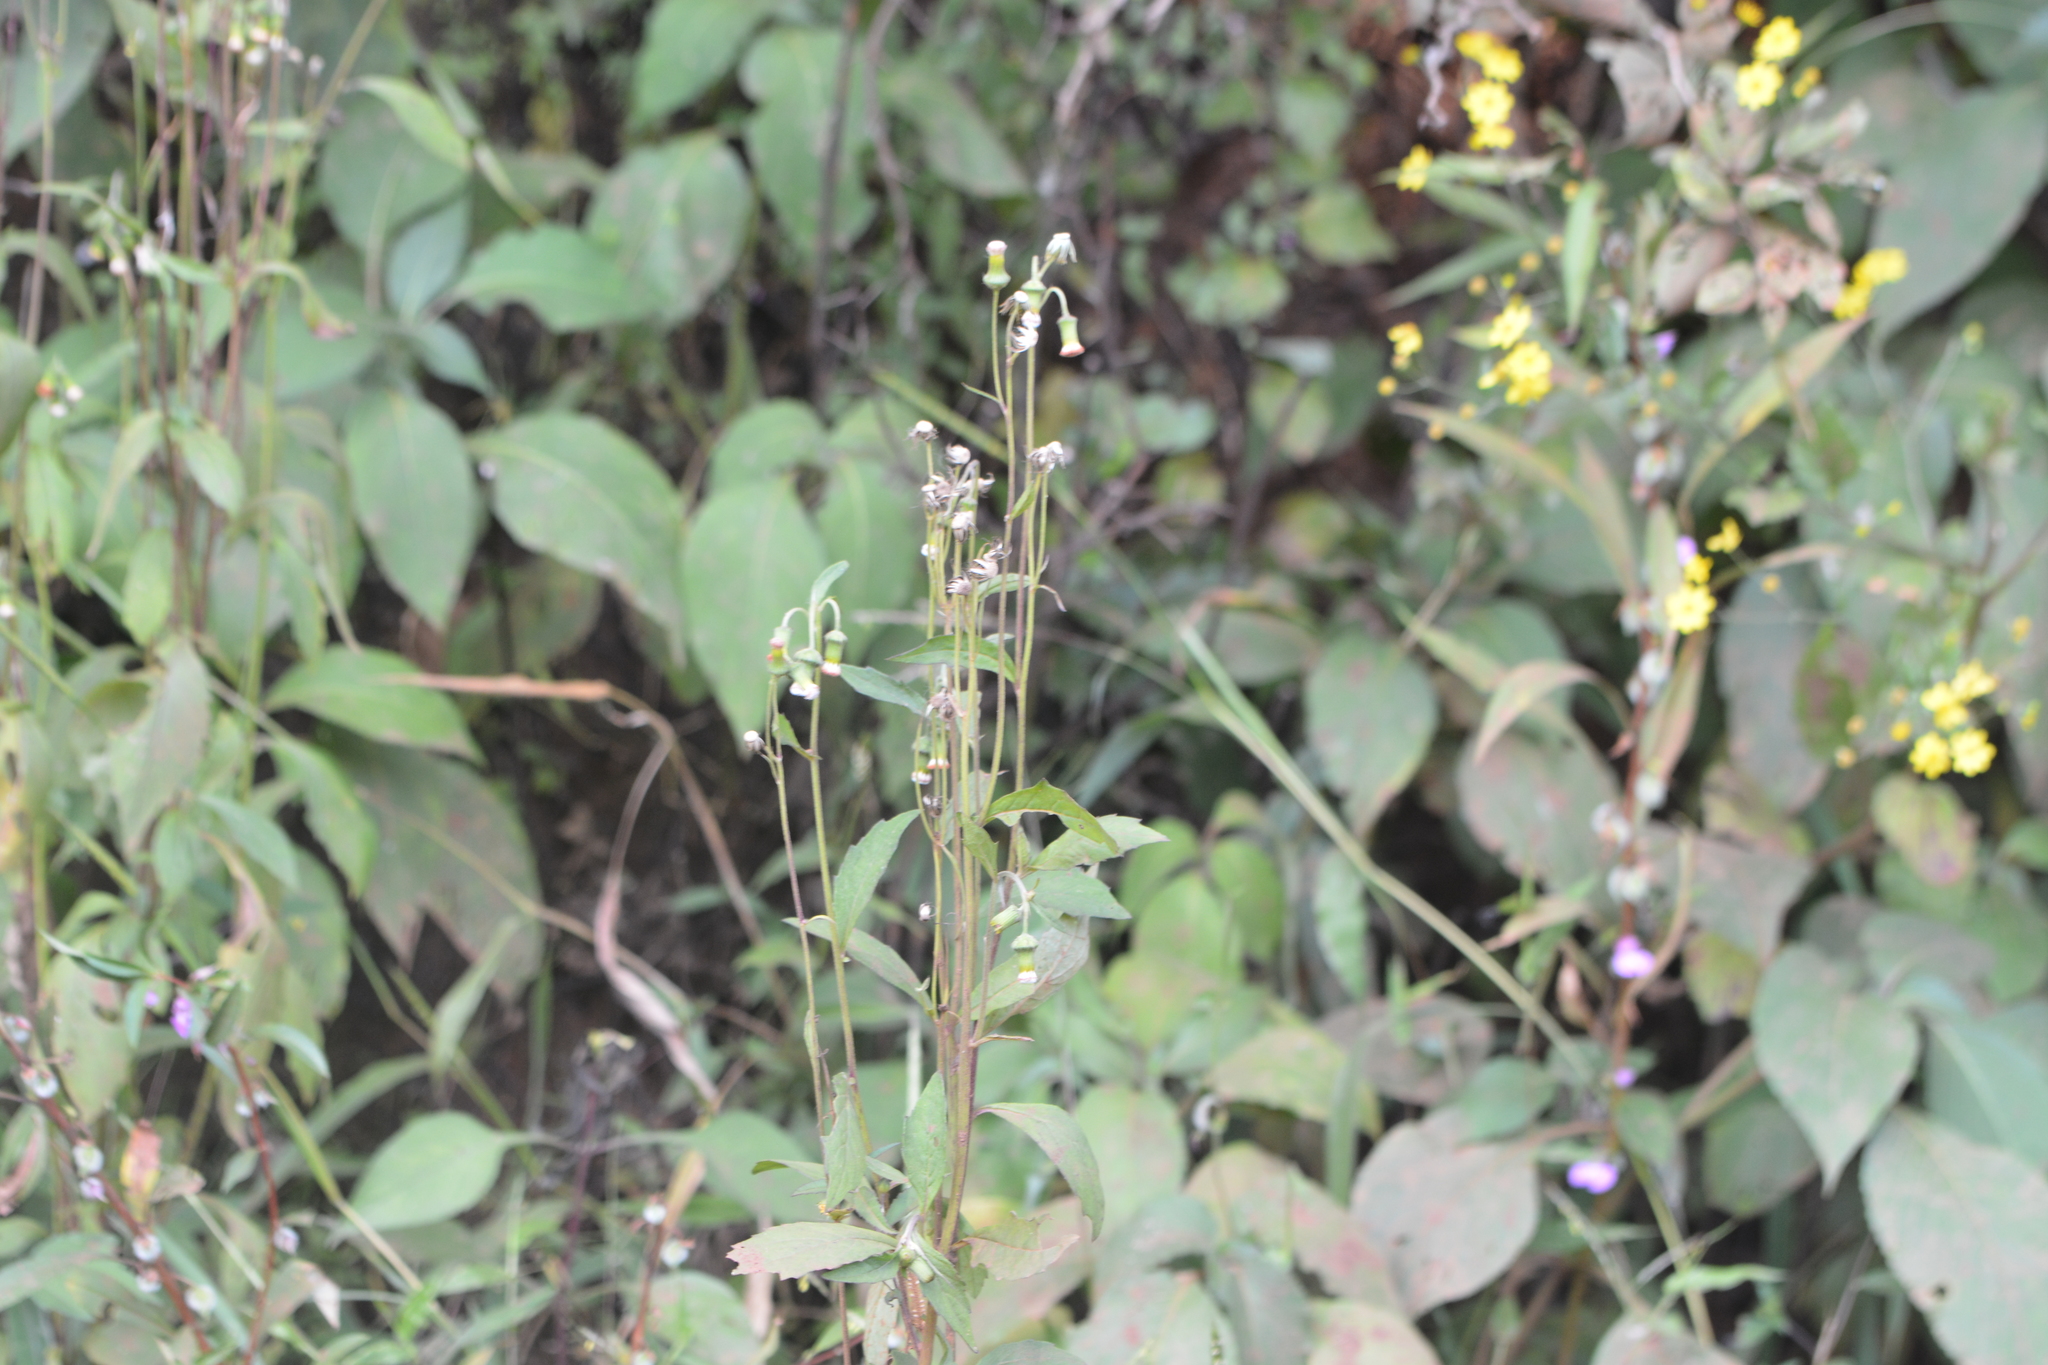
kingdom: Plantae
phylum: Tracheophyta
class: Magnoliopsida
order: Asterales
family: Asteraceae
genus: Crassocephalum
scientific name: Crassocephalum crepidioides
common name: Redflower ragleaf
